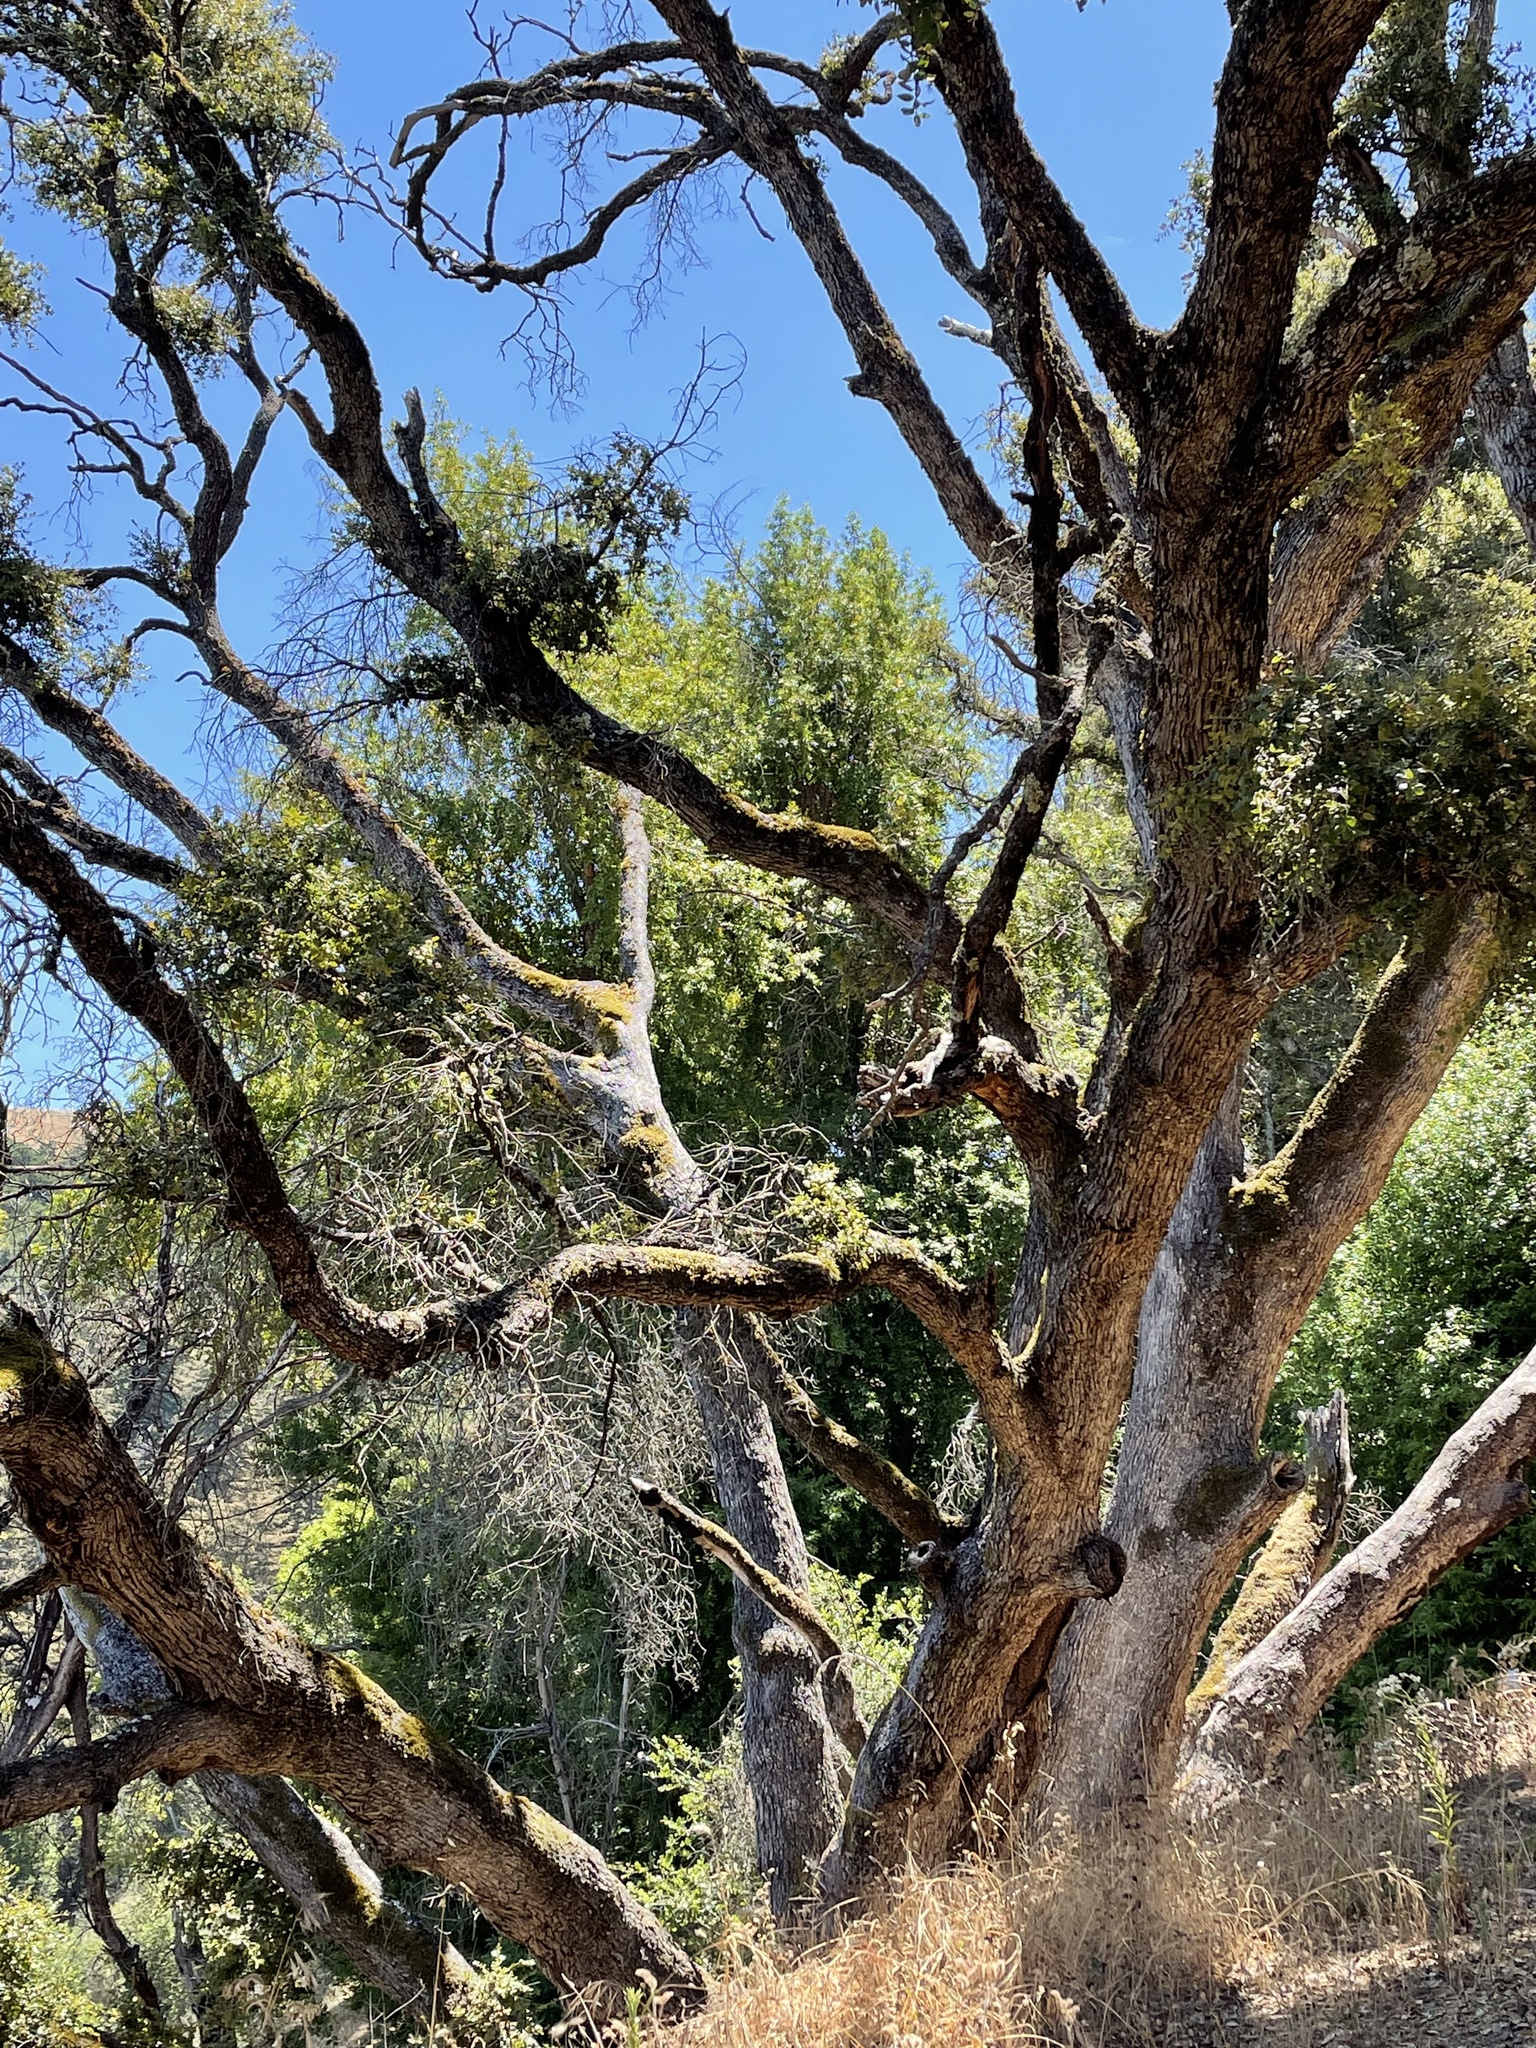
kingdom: Plantae
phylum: Tracheophyta
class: Magnoliopsida
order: Fagales
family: Fagaceae
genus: Quercus
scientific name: Quercus chrysolepis
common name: Canyon live oak
